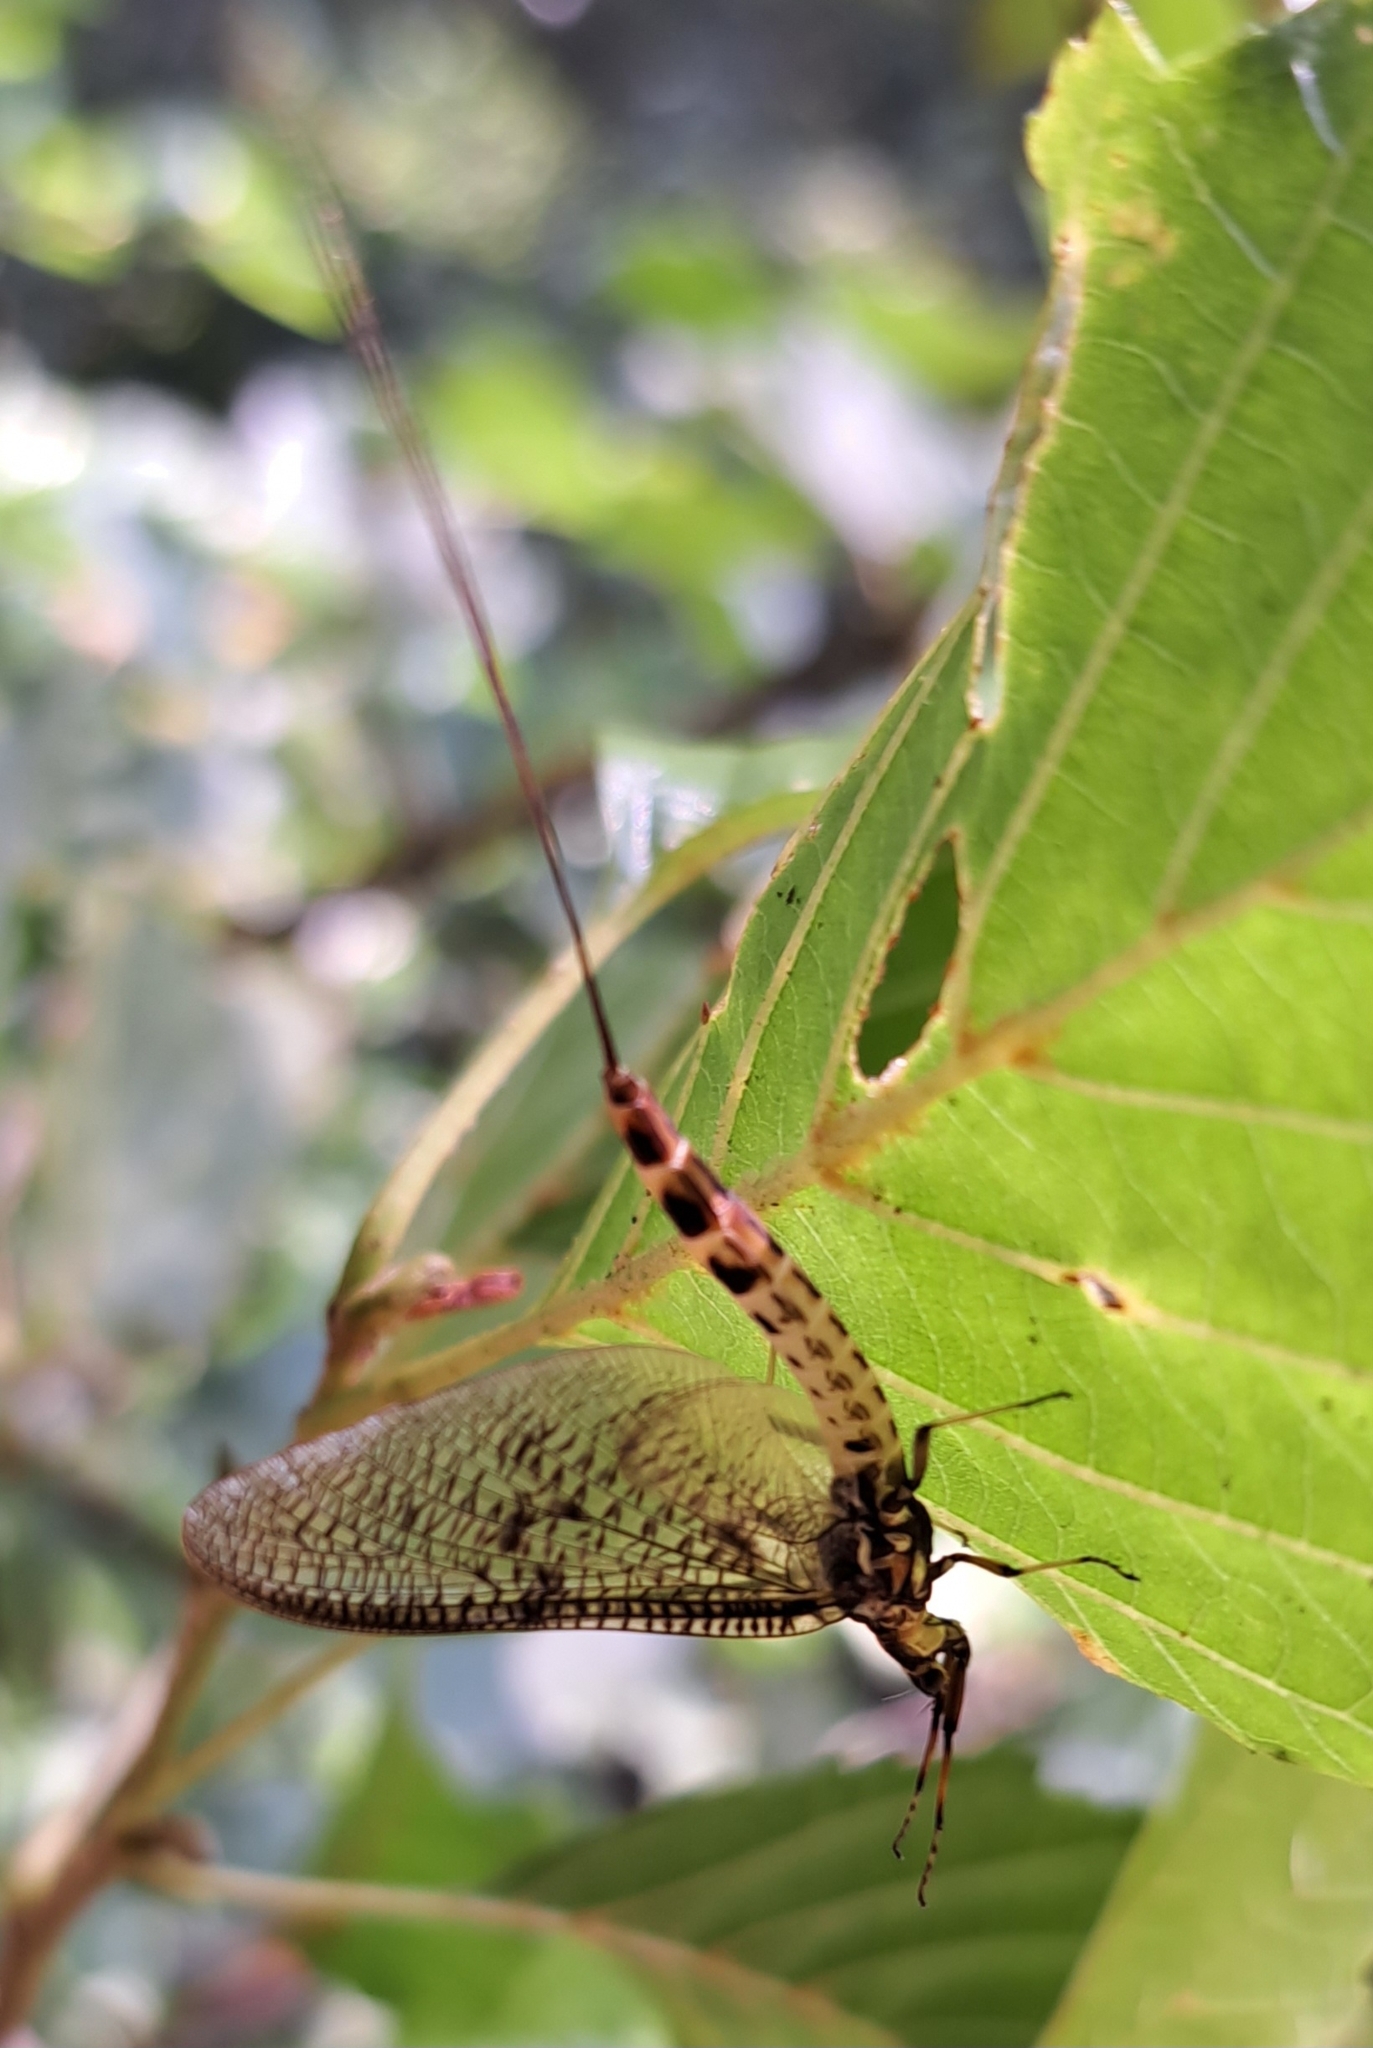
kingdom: Animalia
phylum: Arthropoda
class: Insecta
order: Ephemeroptera
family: Ephemeridae
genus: Ephemera
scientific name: Ephemera danica
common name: Green dun
